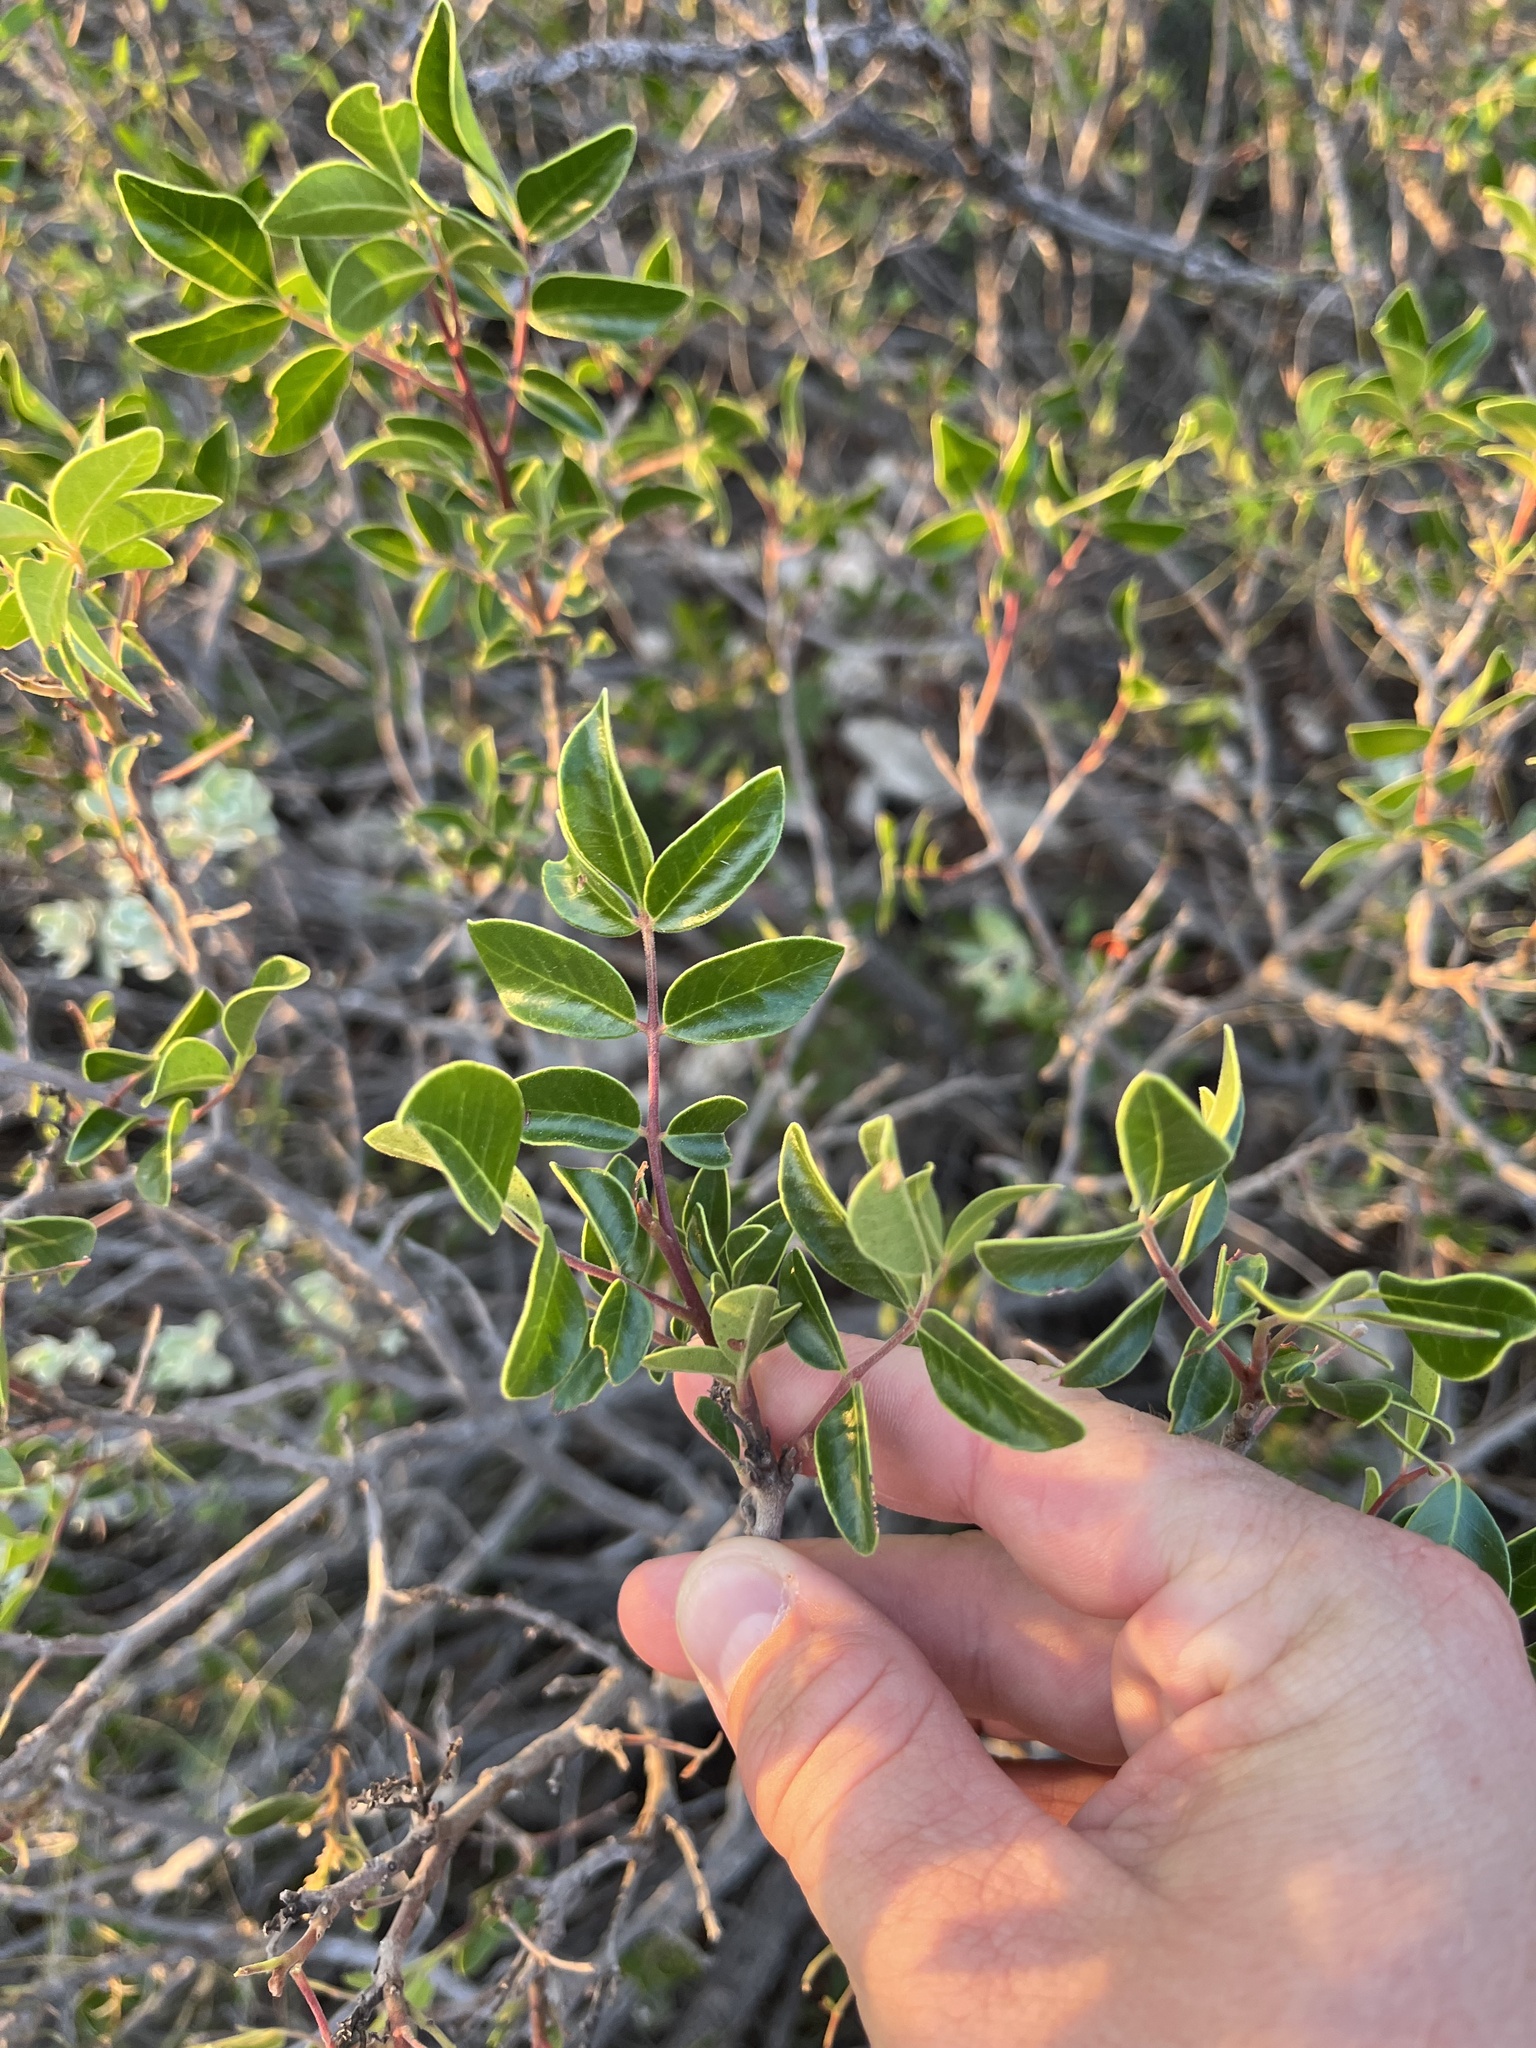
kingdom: Plantae
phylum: Tracheophyta
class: Magnoliopsida
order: Sapindales
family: Anacardiaceae
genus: Rhus
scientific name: Rhus virens
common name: Evergreen sumac
